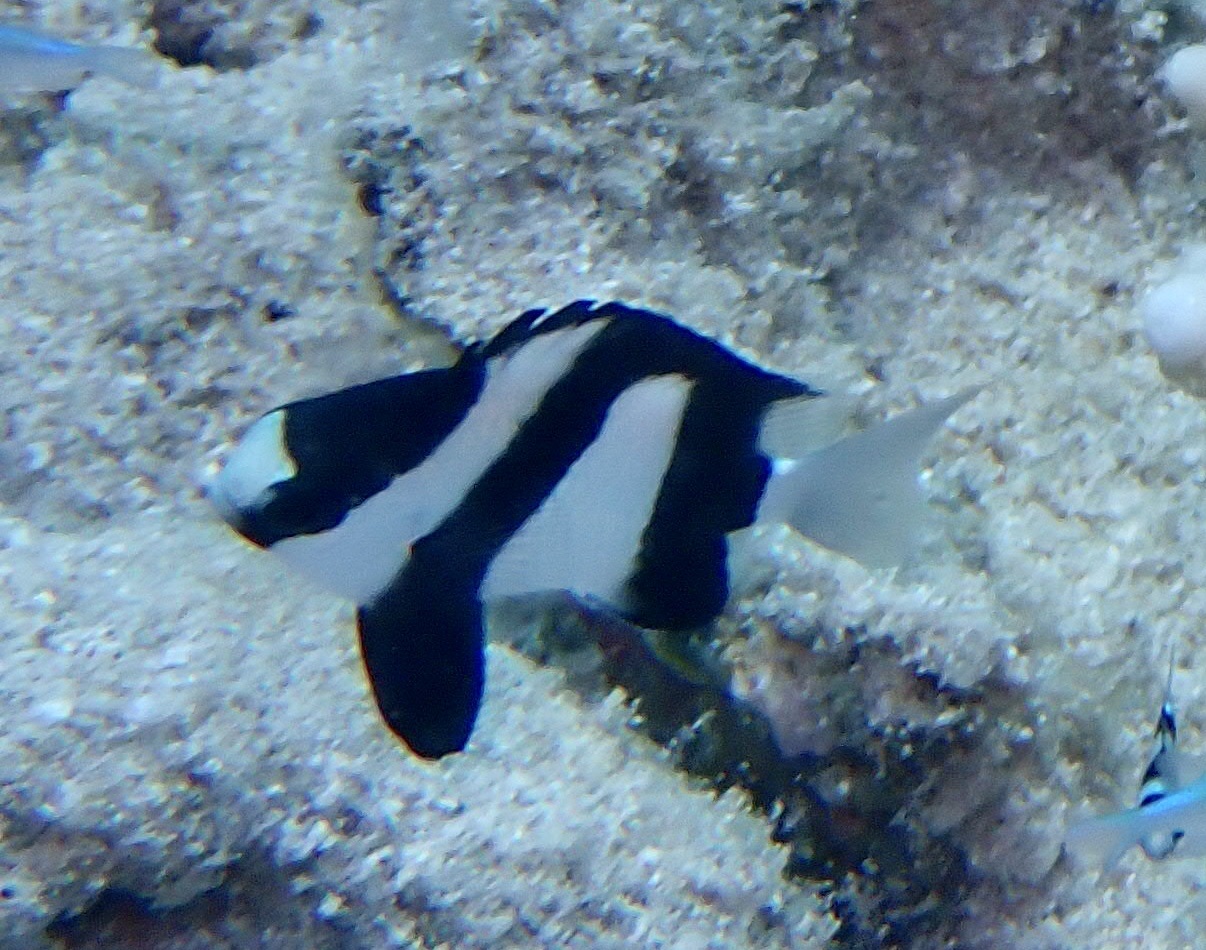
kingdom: Animalia
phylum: Chordata
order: Perciformes
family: Pomacentridae
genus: Dascyllus
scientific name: Dascyllus abudafur
